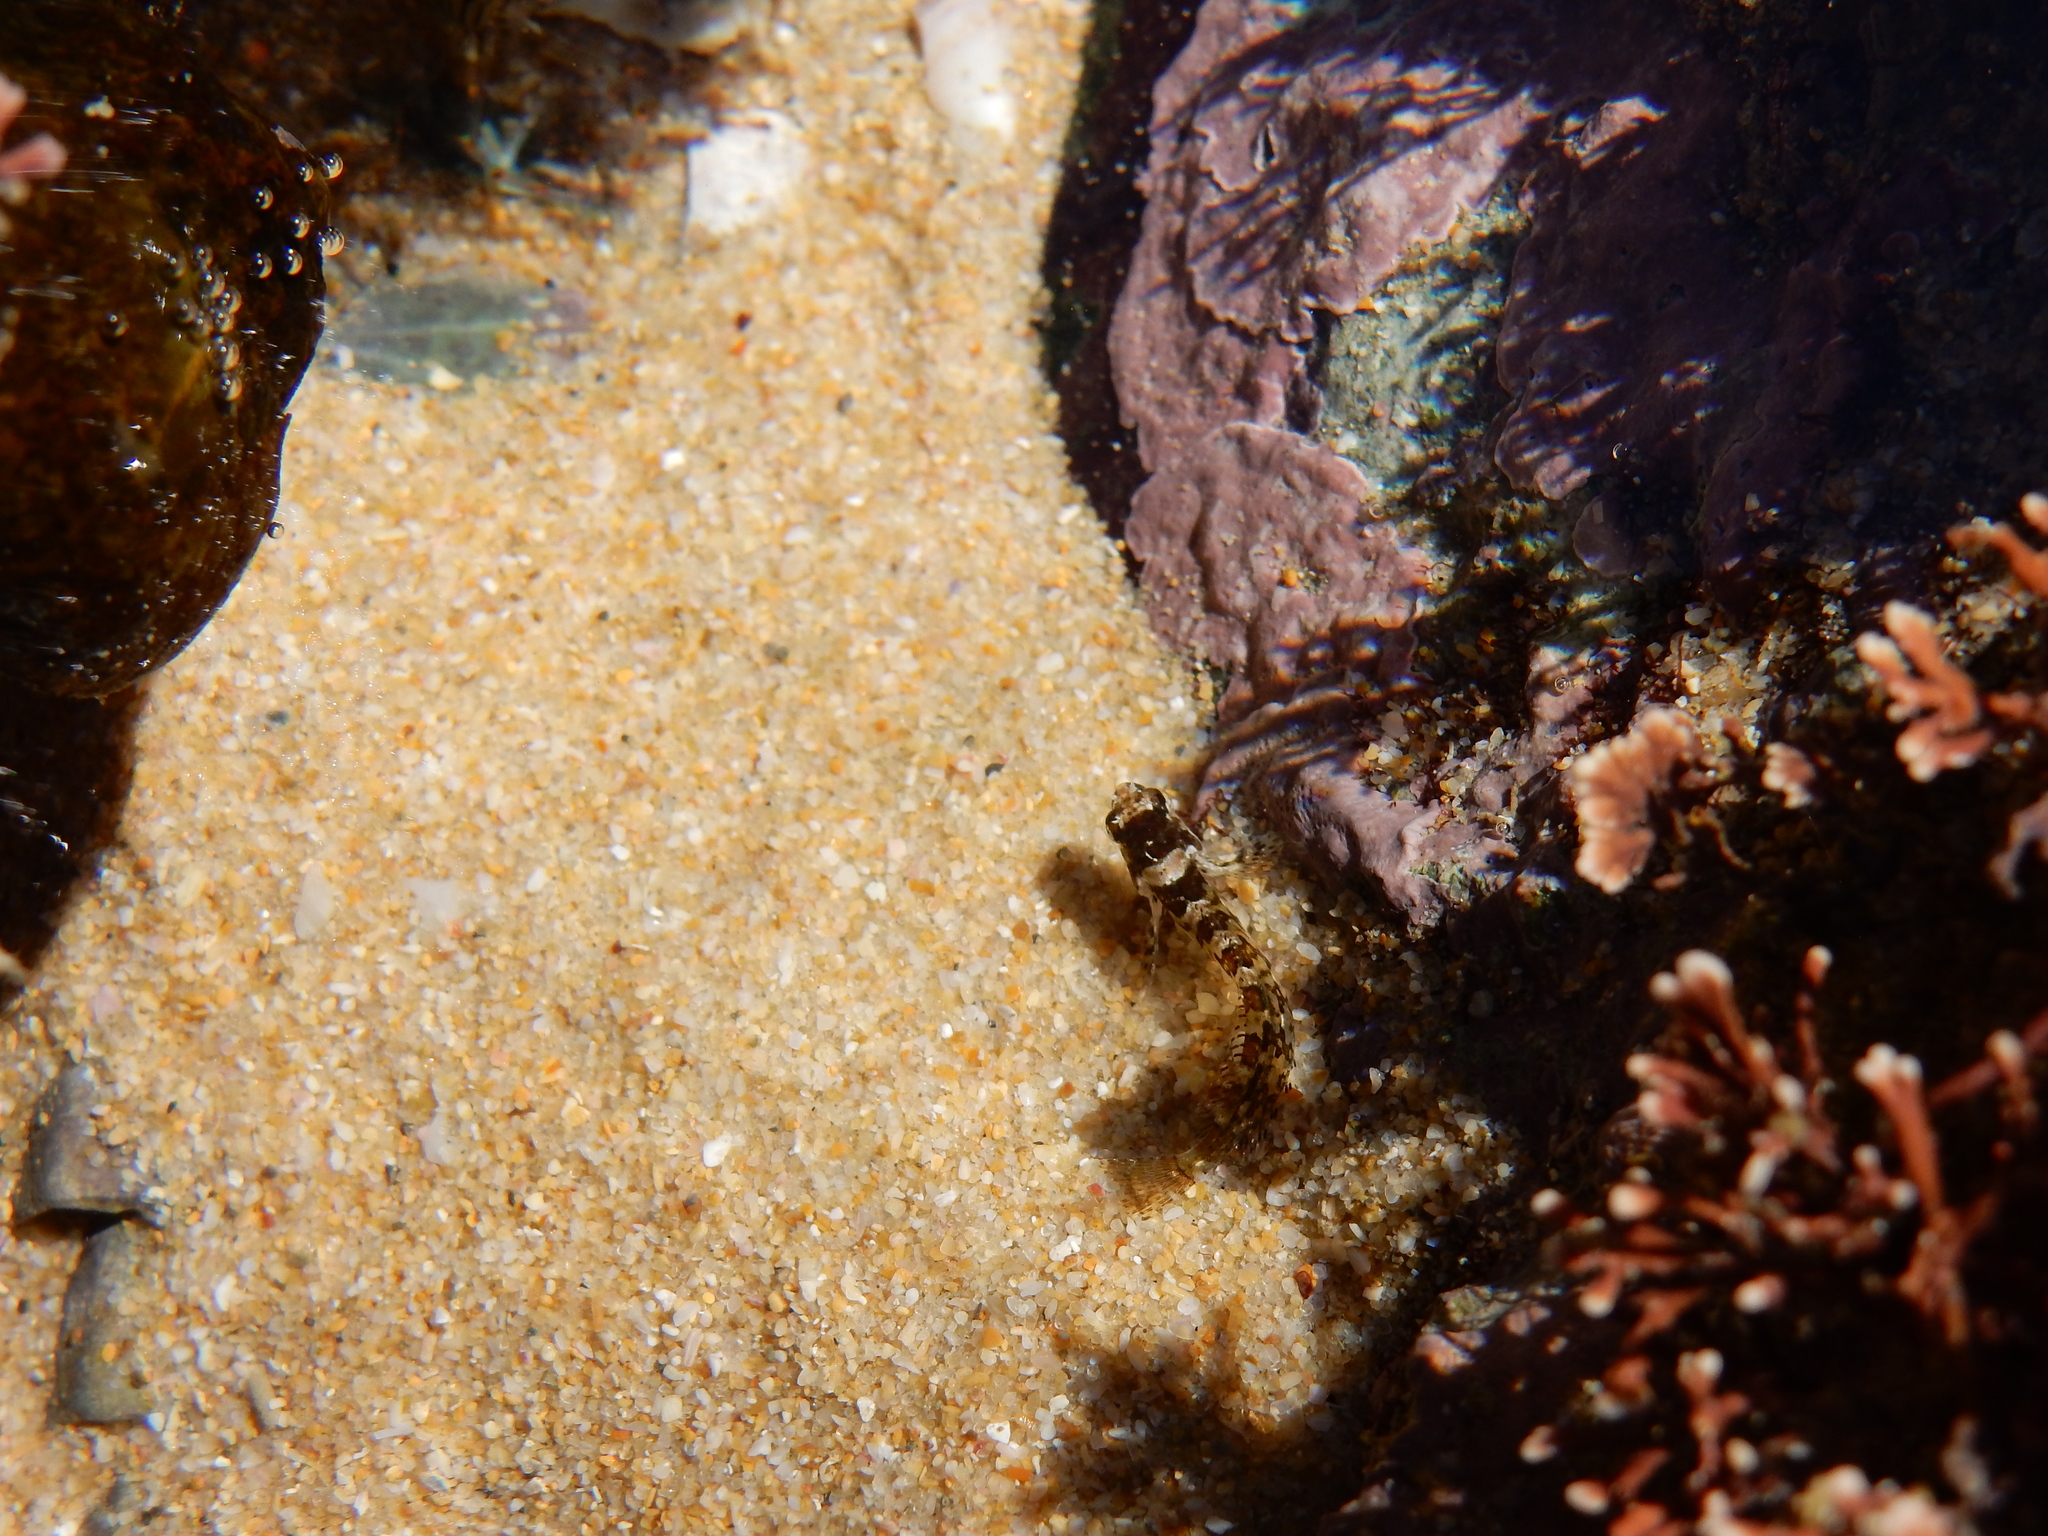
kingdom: Animalia
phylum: Chordata
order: Perciformes
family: Clinidae
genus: Clinus
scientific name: Clinus cottoides
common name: Bluntnose klipfish
